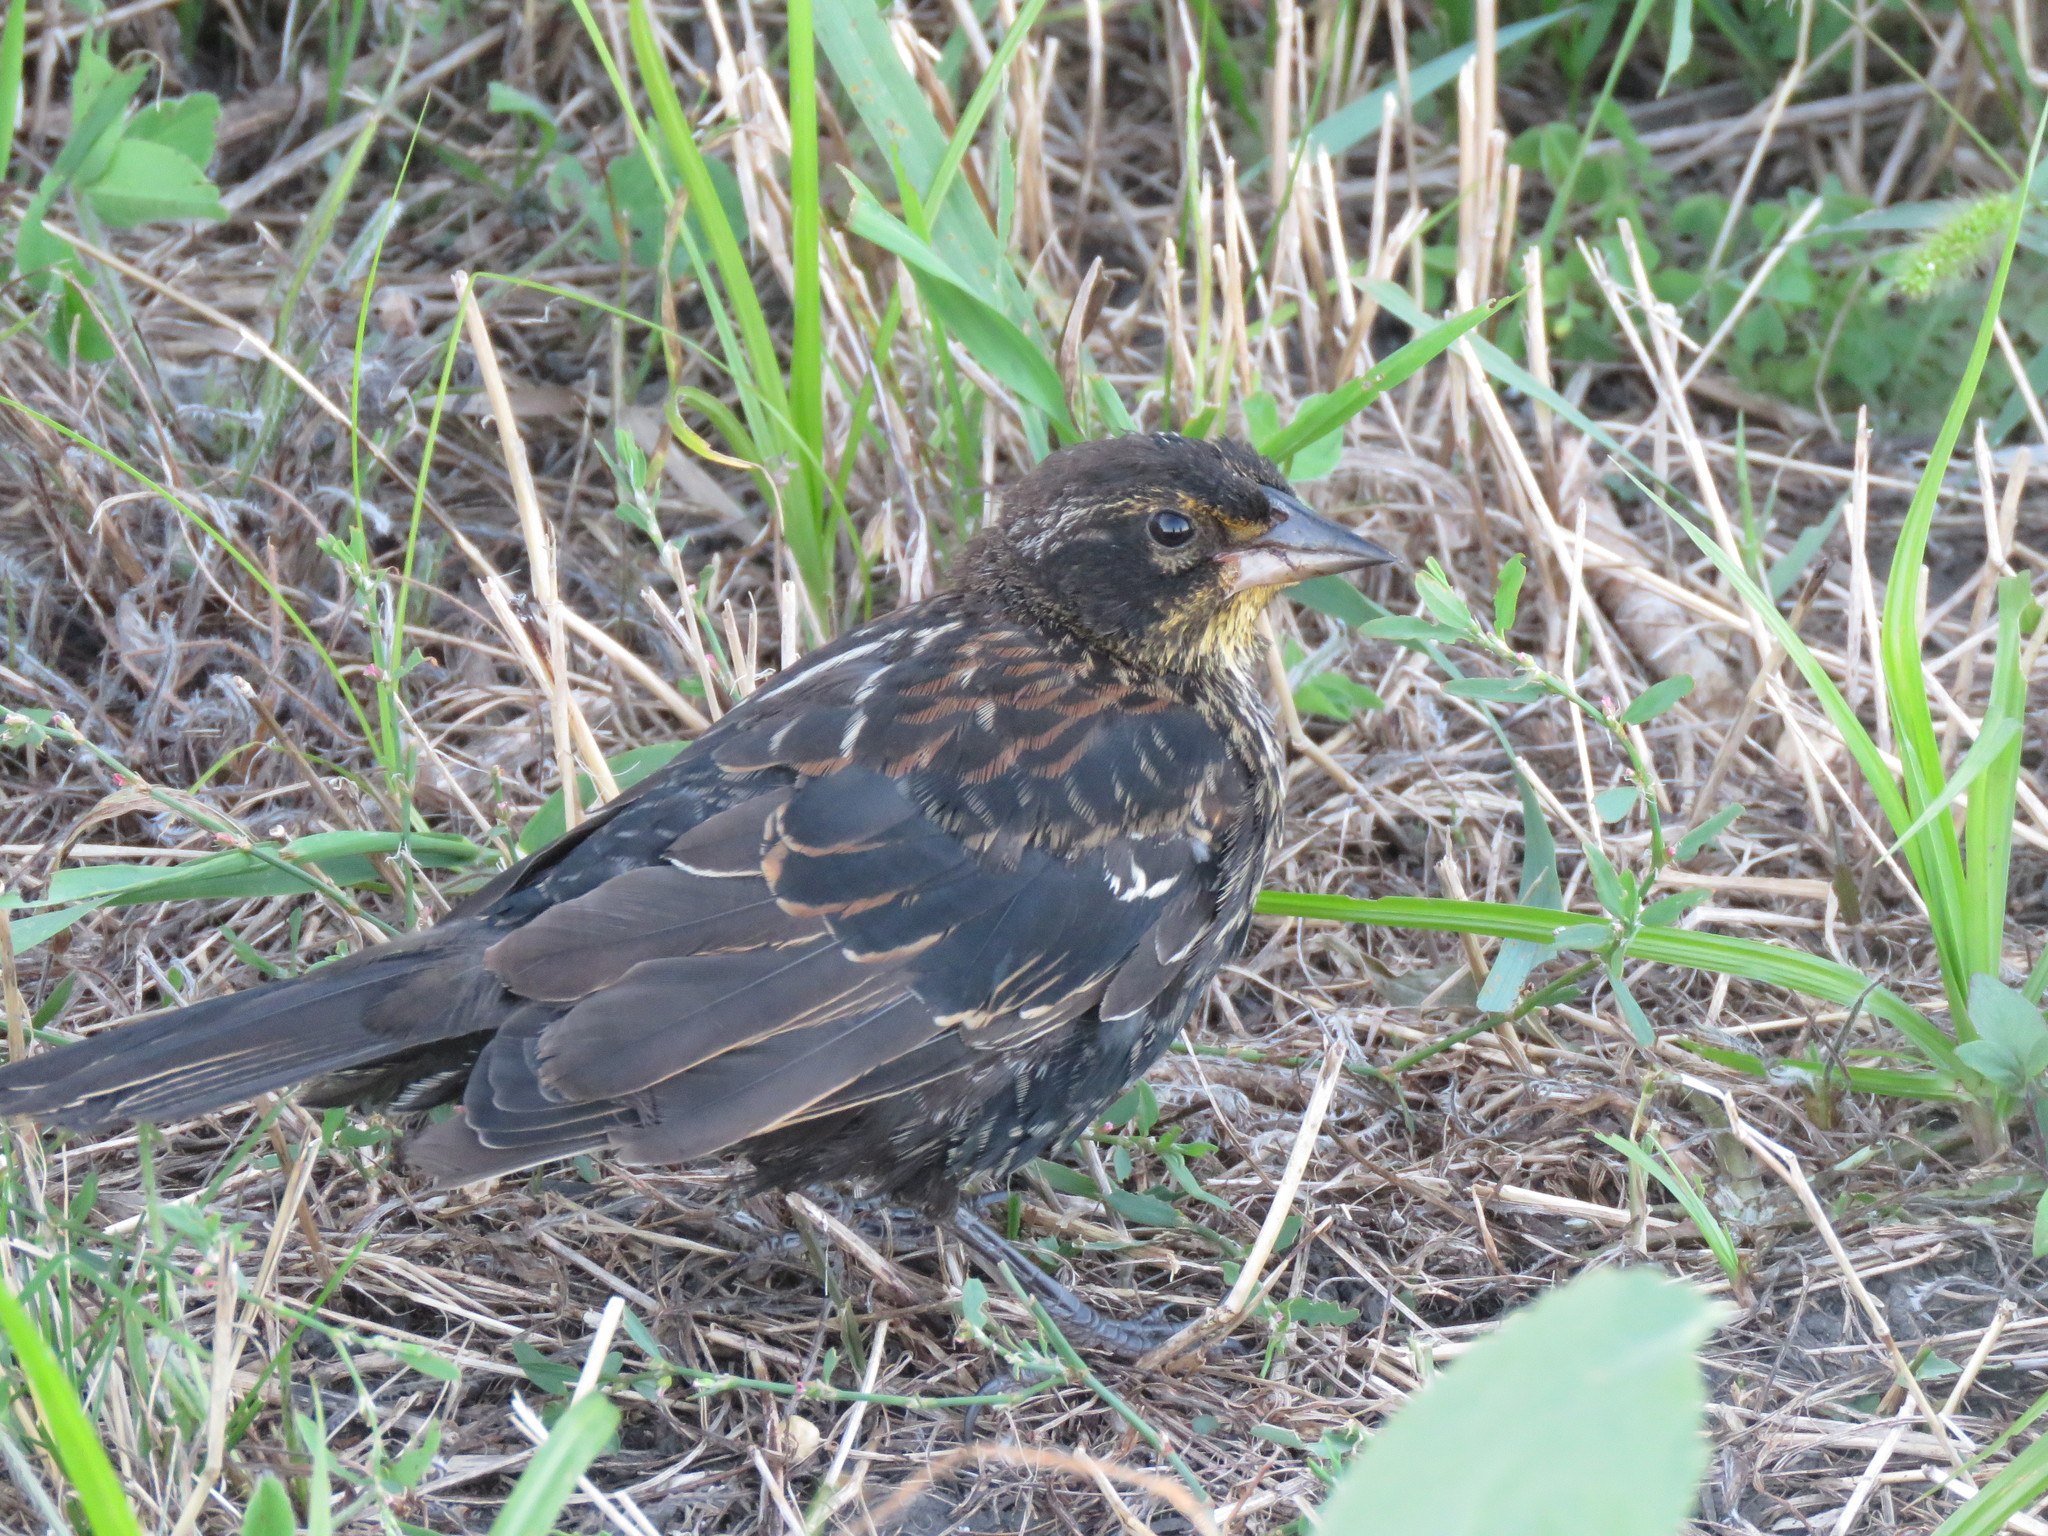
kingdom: Animalia
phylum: Chordata
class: Aves
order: Passeriformes
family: Icteridae
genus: Agelaius
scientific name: Agelaius phoeniceus
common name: Red-winged blackbird
